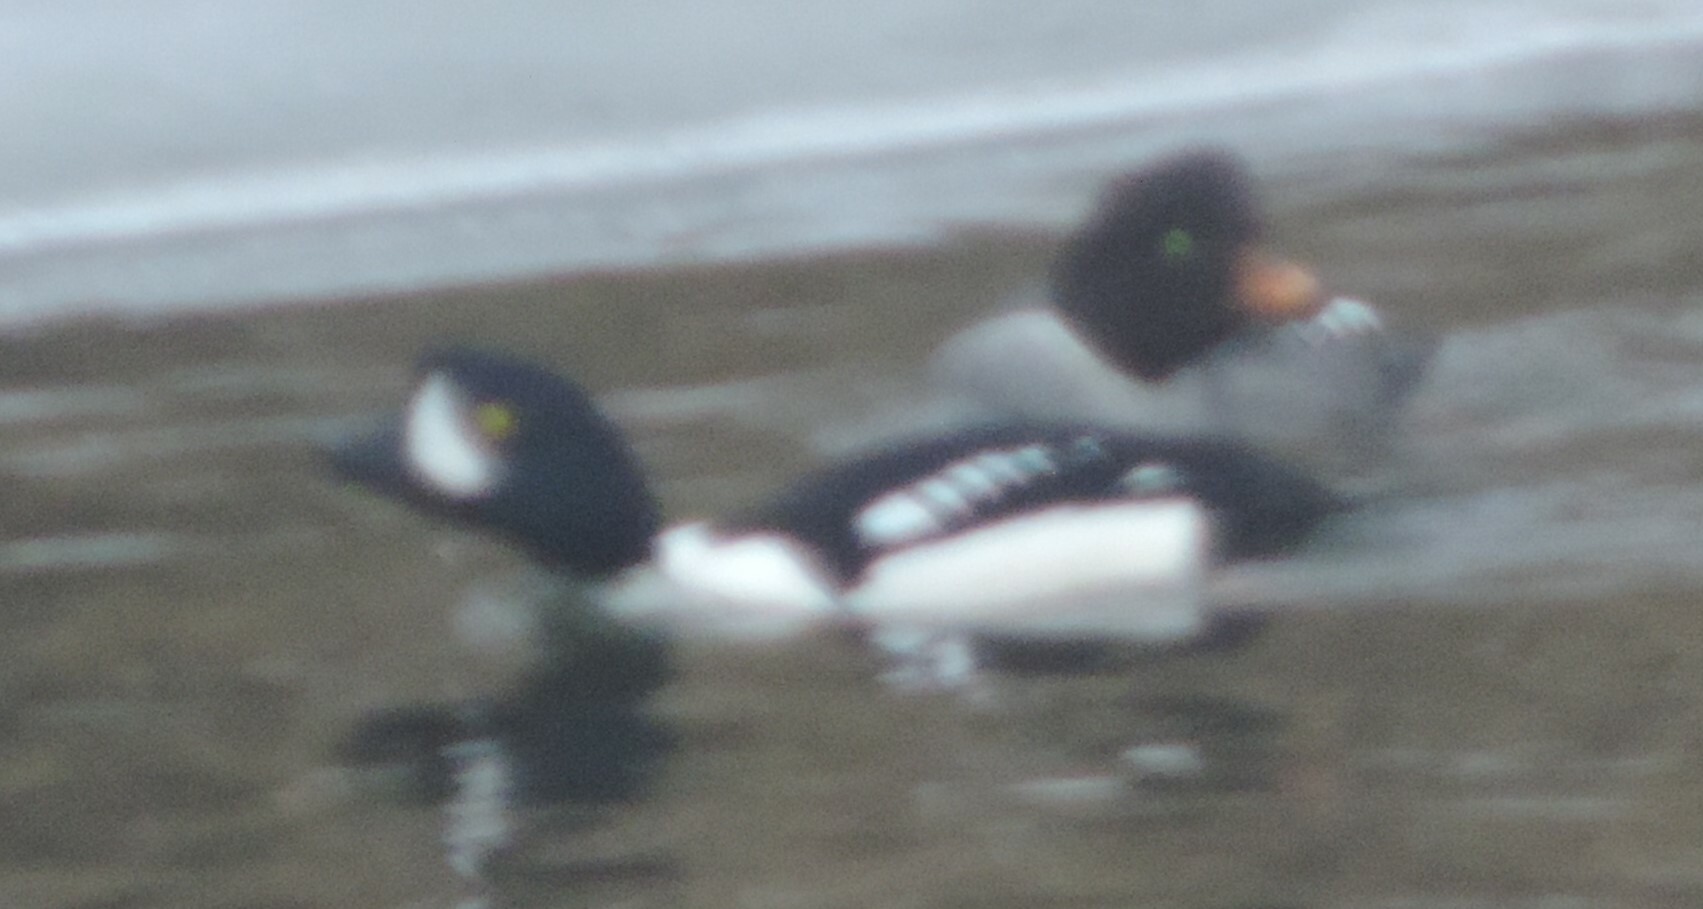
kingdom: Animalia
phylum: Chordata
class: Aves
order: Anseriformes
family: Anatidae
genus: Bucephala
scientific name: Bucephala islandica
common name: Barrow's goldeneye
